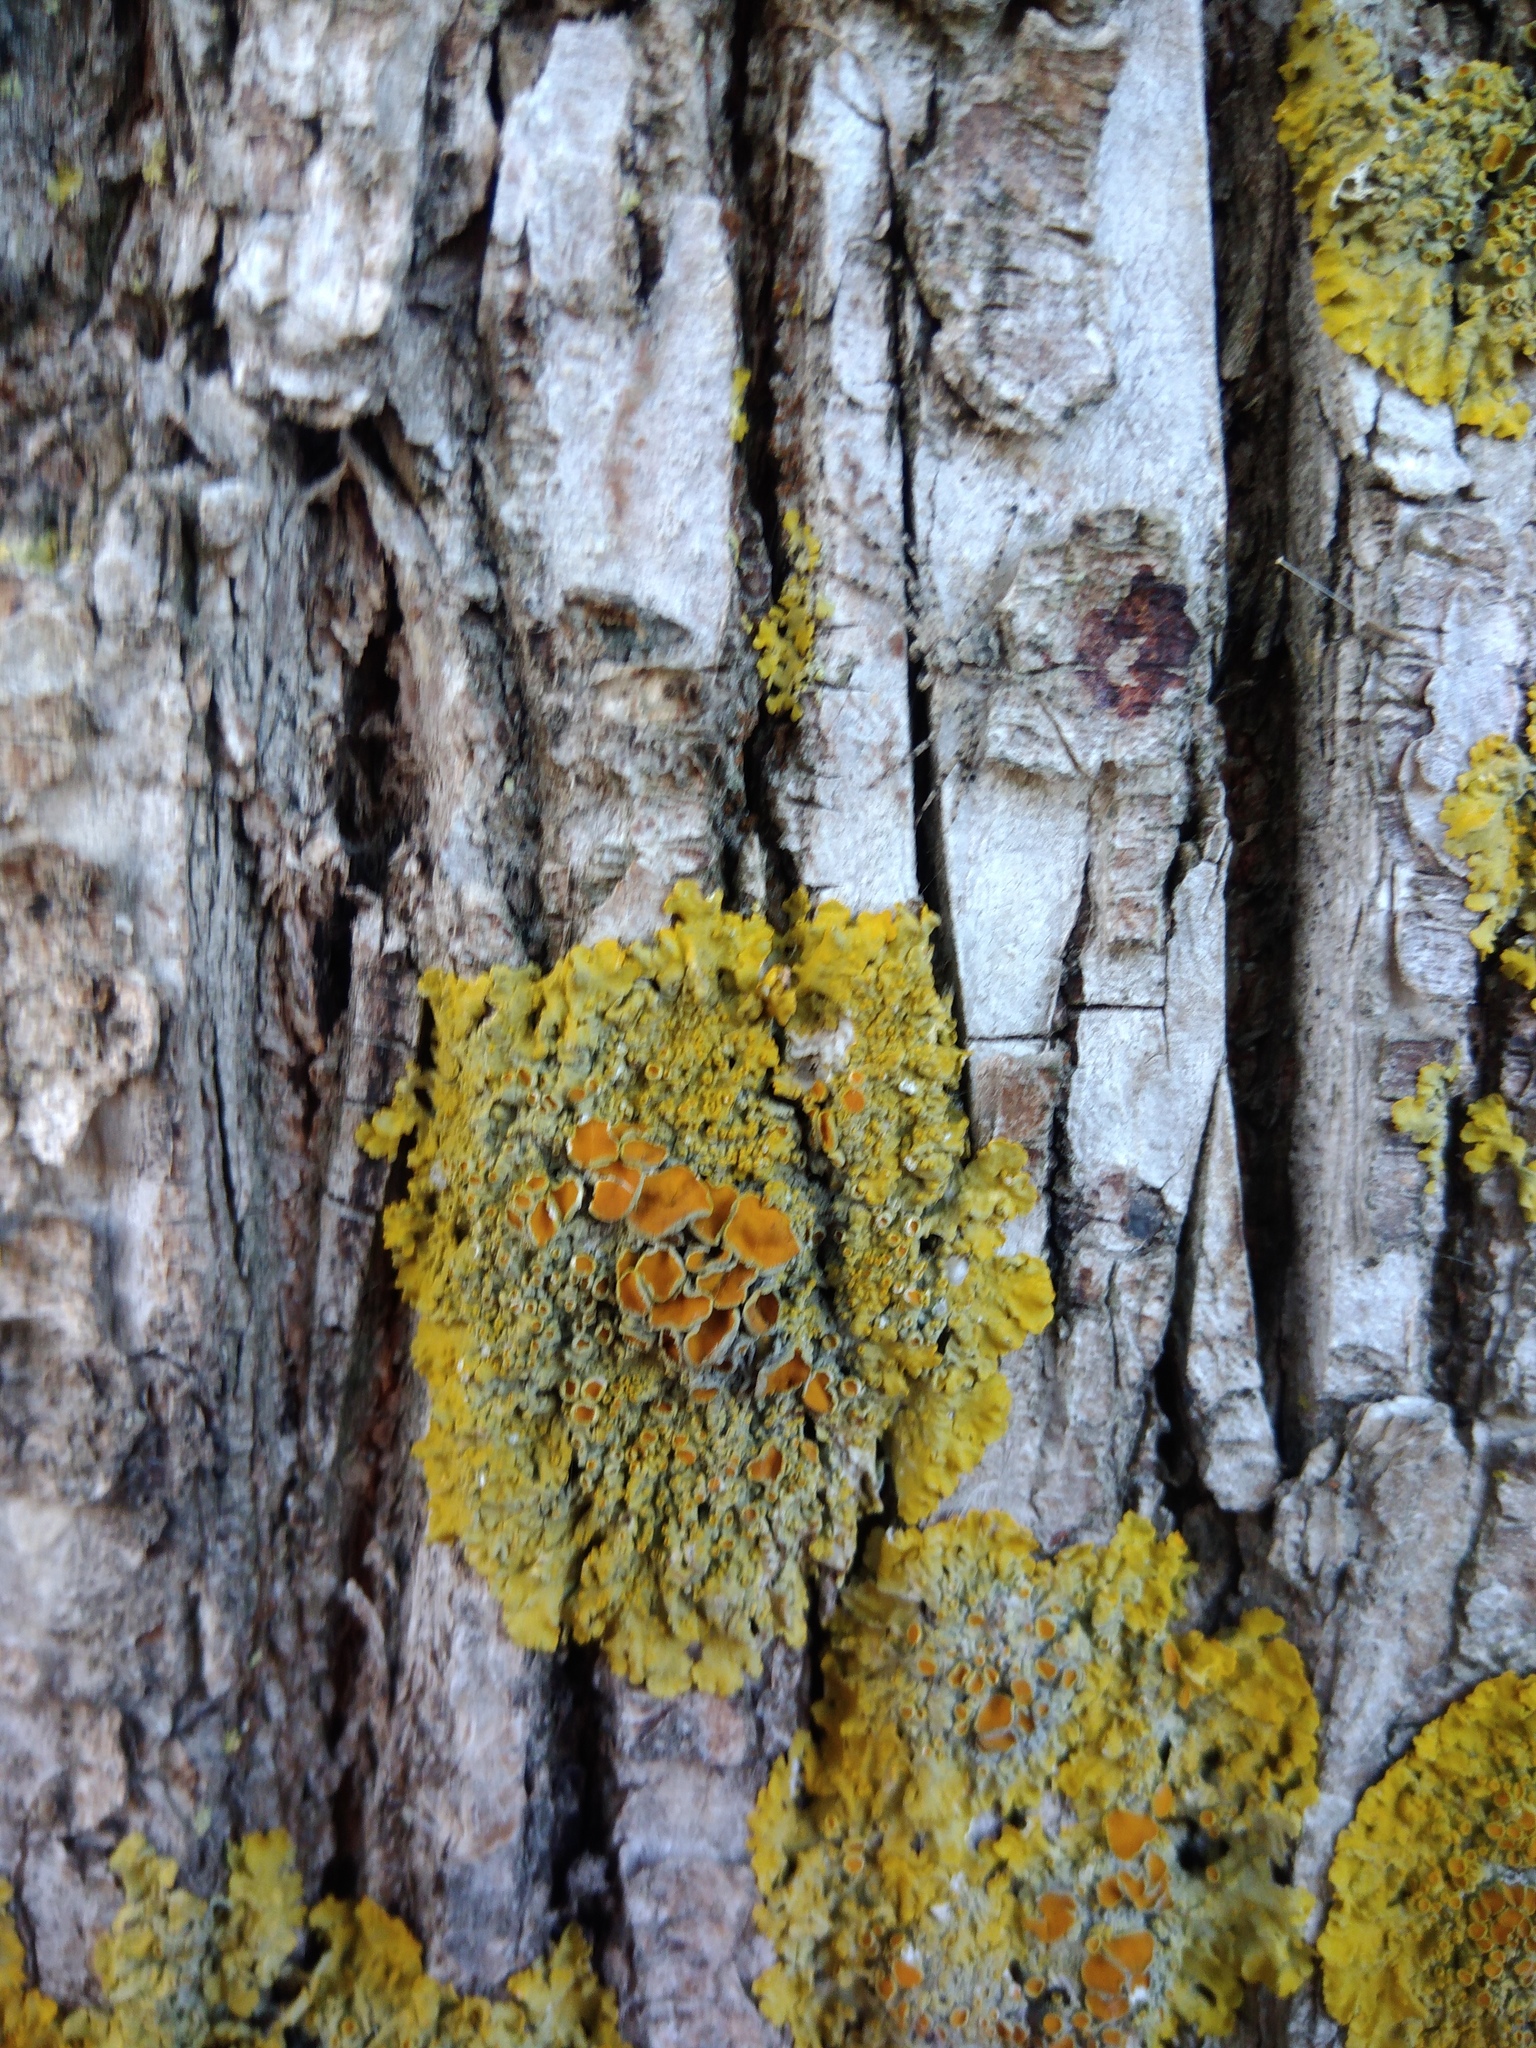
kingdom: Fungi
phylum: Ascomycota
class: Lecanoromycetes
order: Teloschistales
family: Teloschistaceae
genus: Xanthoria
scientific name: Xanthoria parietina
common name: Common orange lichen
